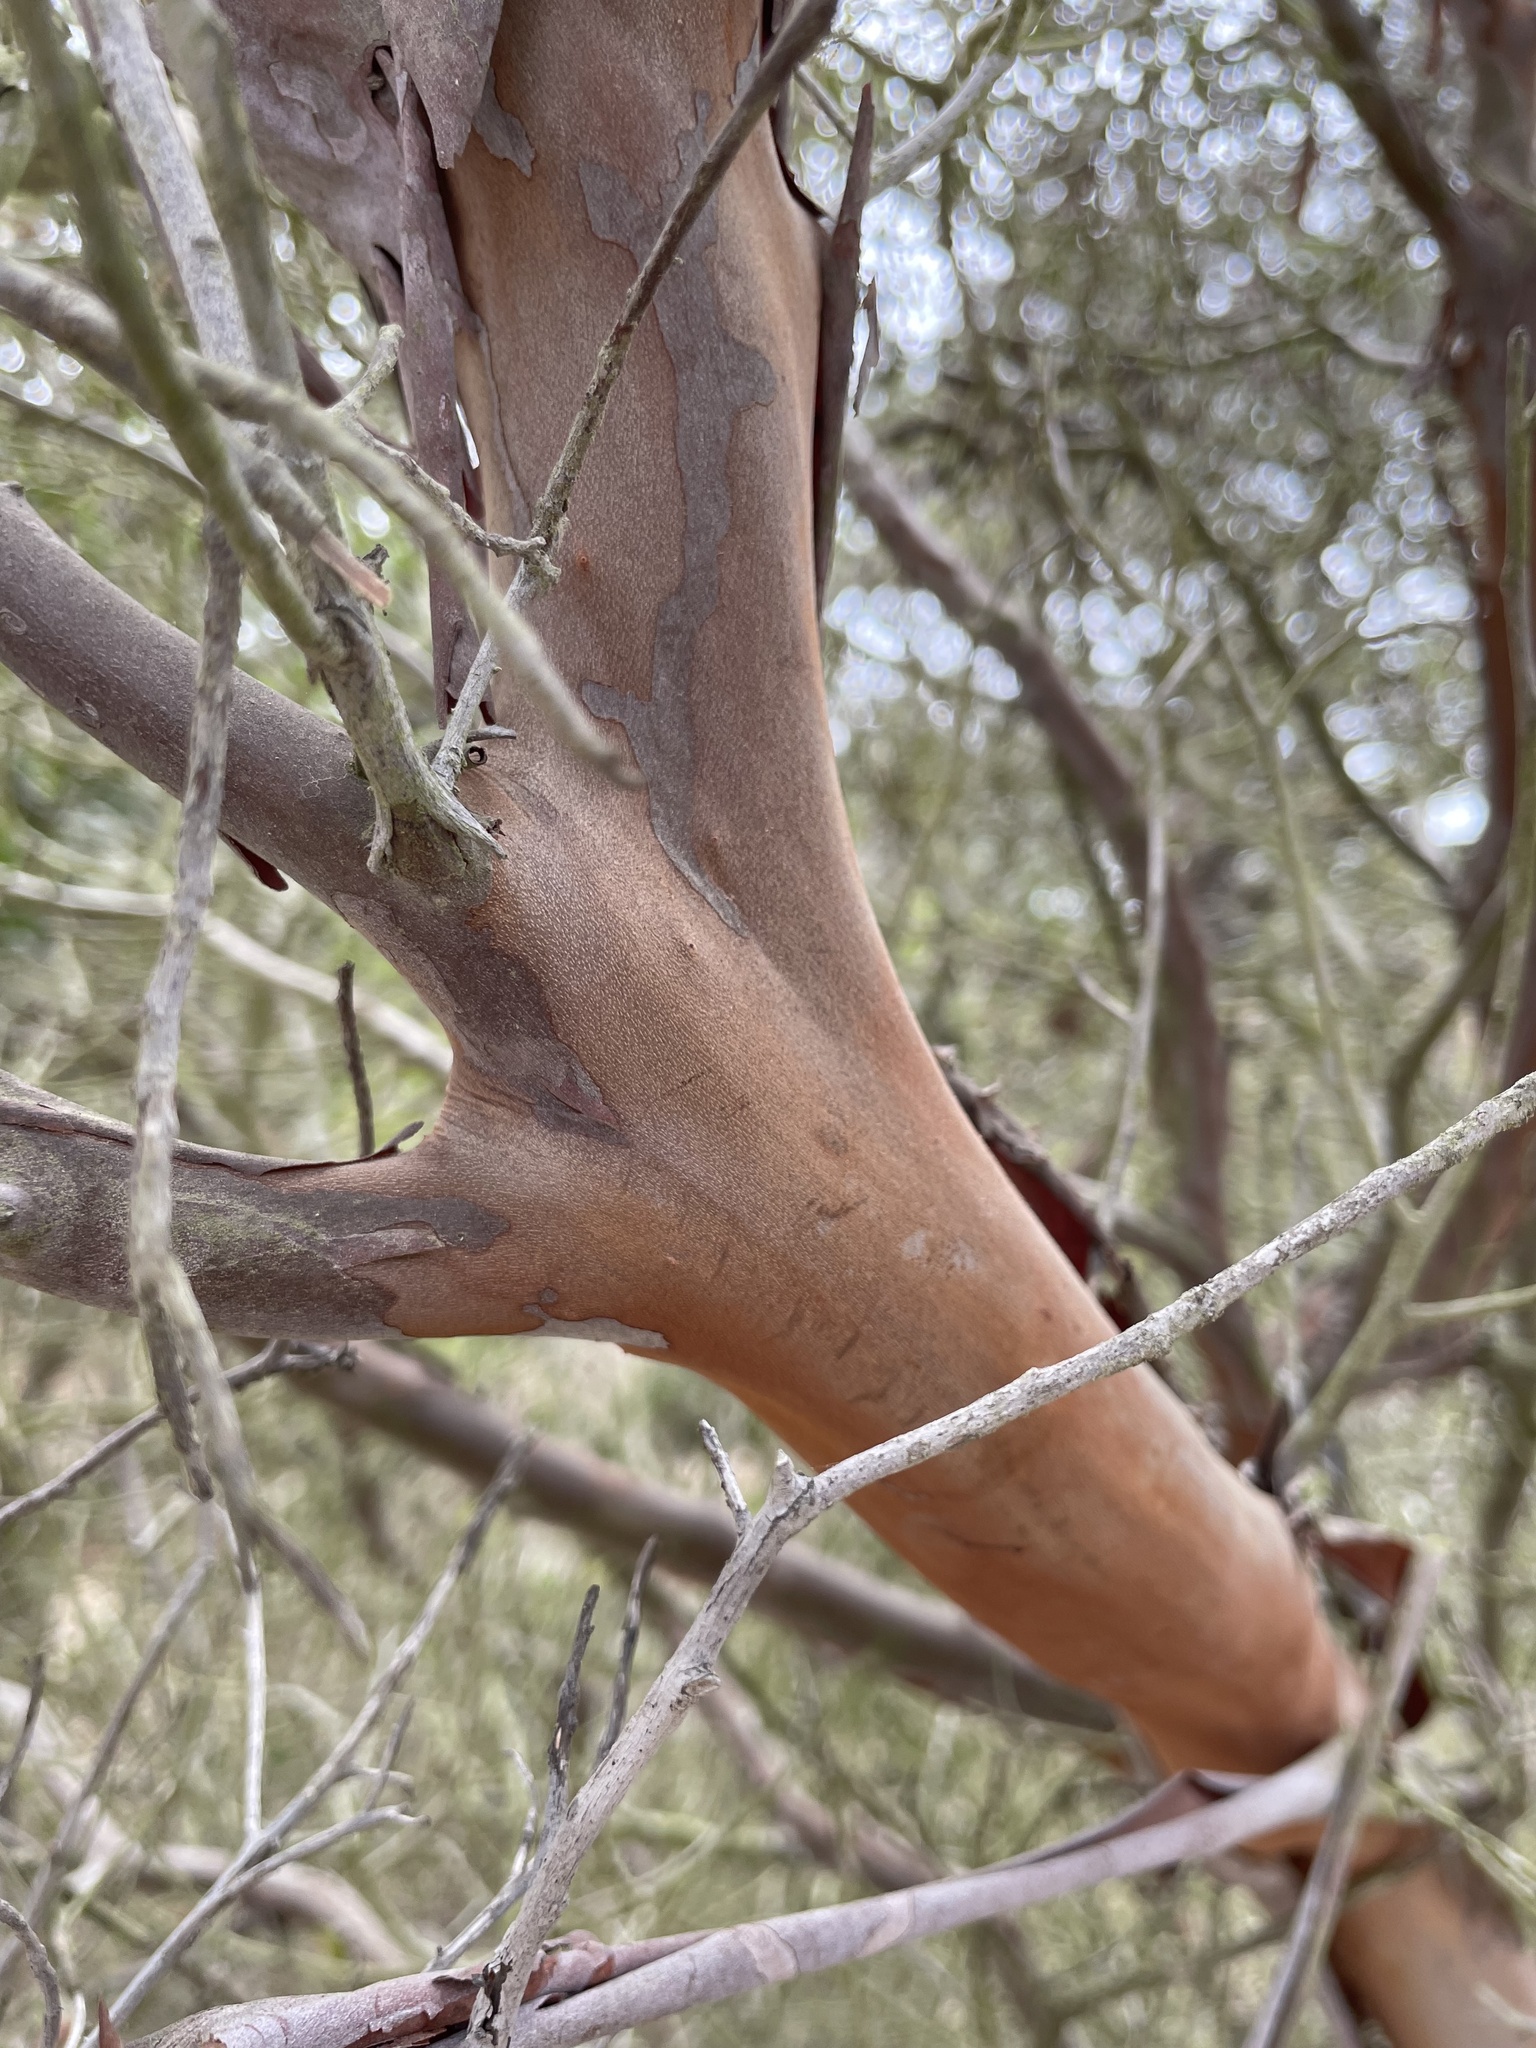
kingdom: Plantae
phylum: Tracheophyta
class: Magnoliopsida
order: Ericales
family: Ericaceae
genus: Arctostaphylos
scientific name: Arctostaphylos bicolor
